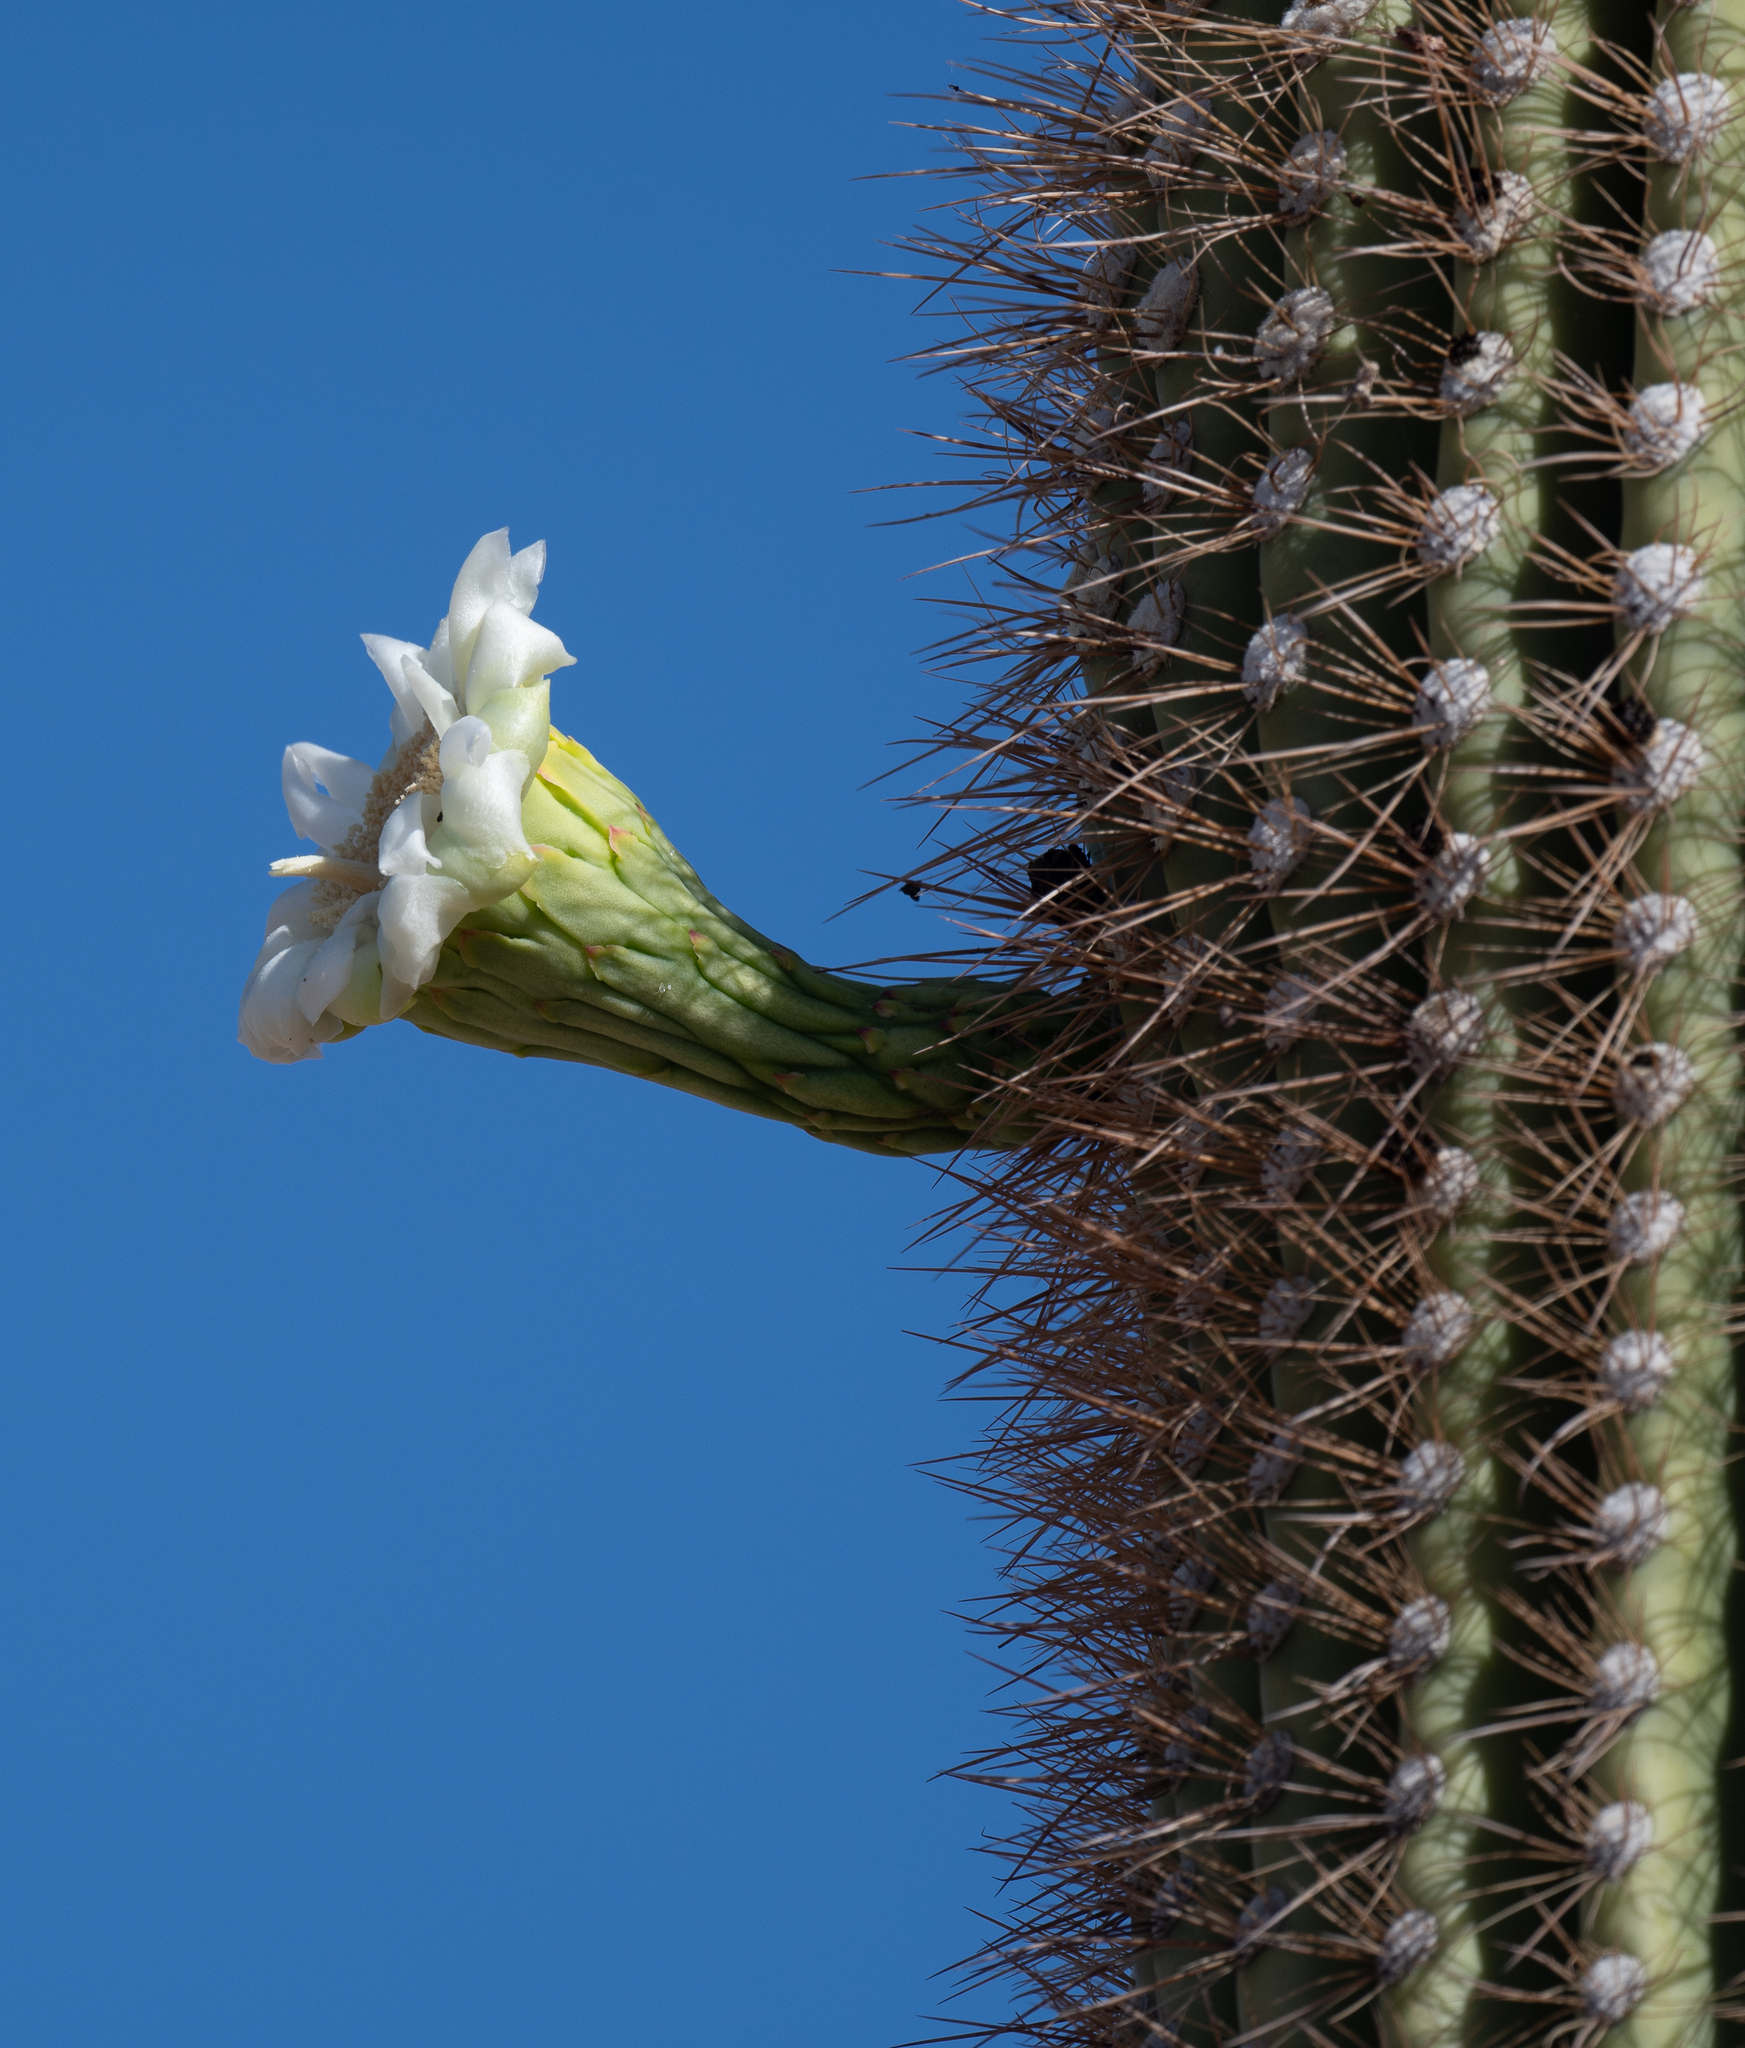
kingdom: Plantae
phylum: Tracheophyta
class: Magnoliopsida
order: Caryophyllales
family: Cactaceae
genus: Carnegiea
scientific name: Carnegiea gigantea
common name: Saguaro
